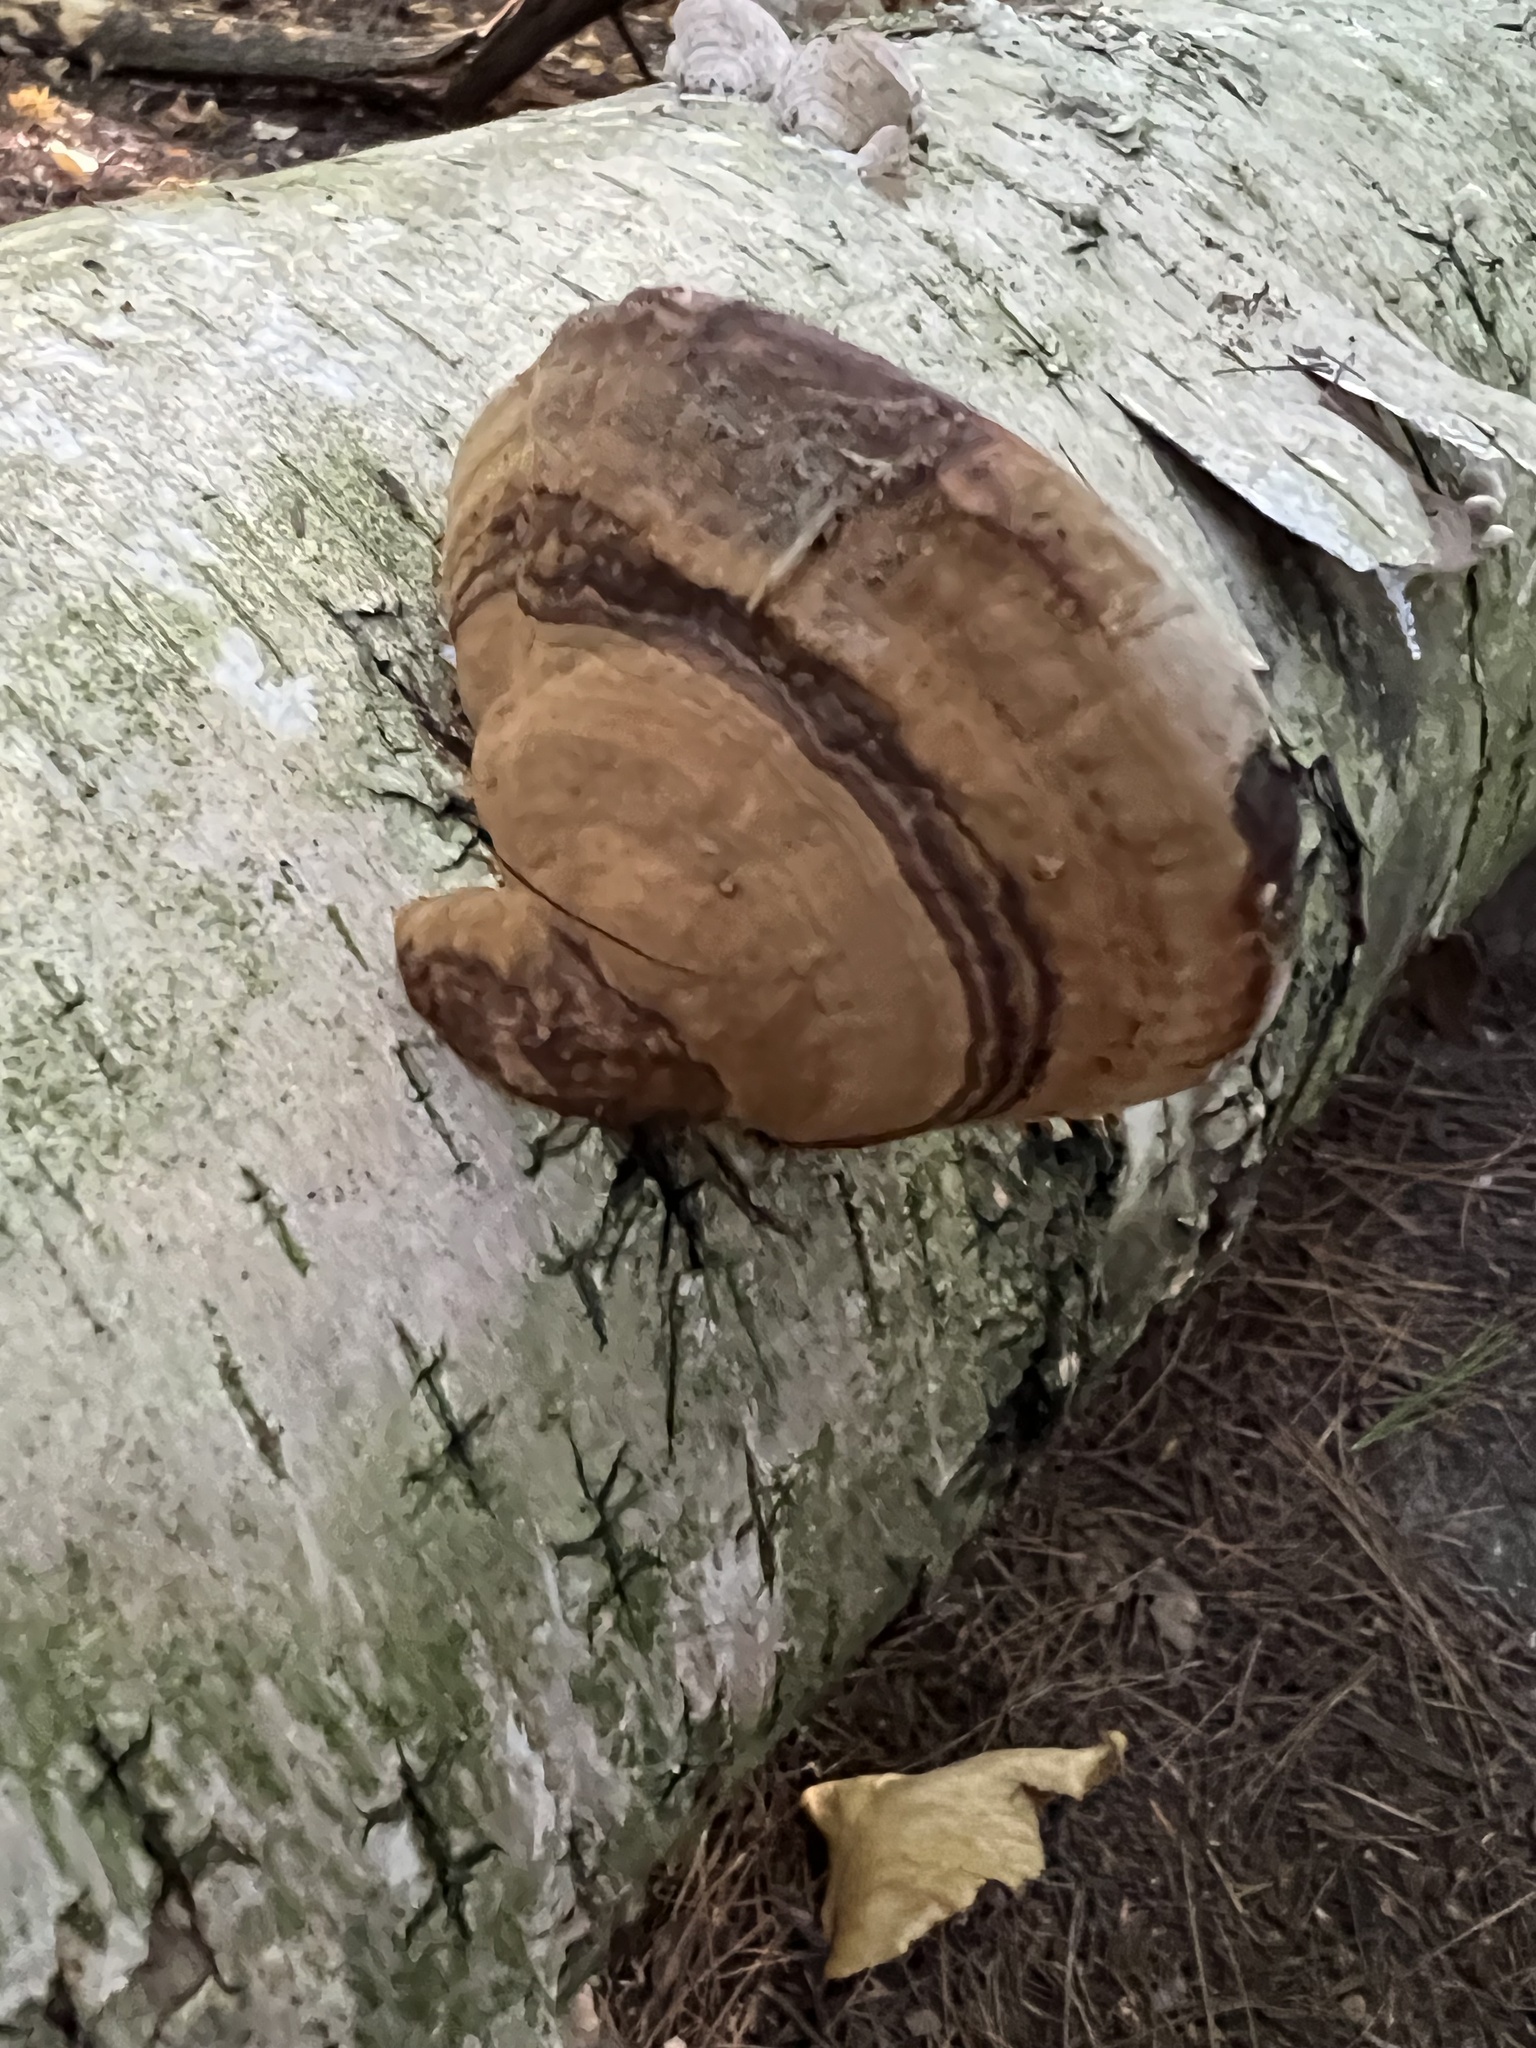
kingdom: Fungi
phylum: Basidiomycota
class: Agaricomycetes
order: Polyporales
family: Polyporaceae
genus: Fomes
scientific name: Fomes fomentarius
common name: Hoof fungus
